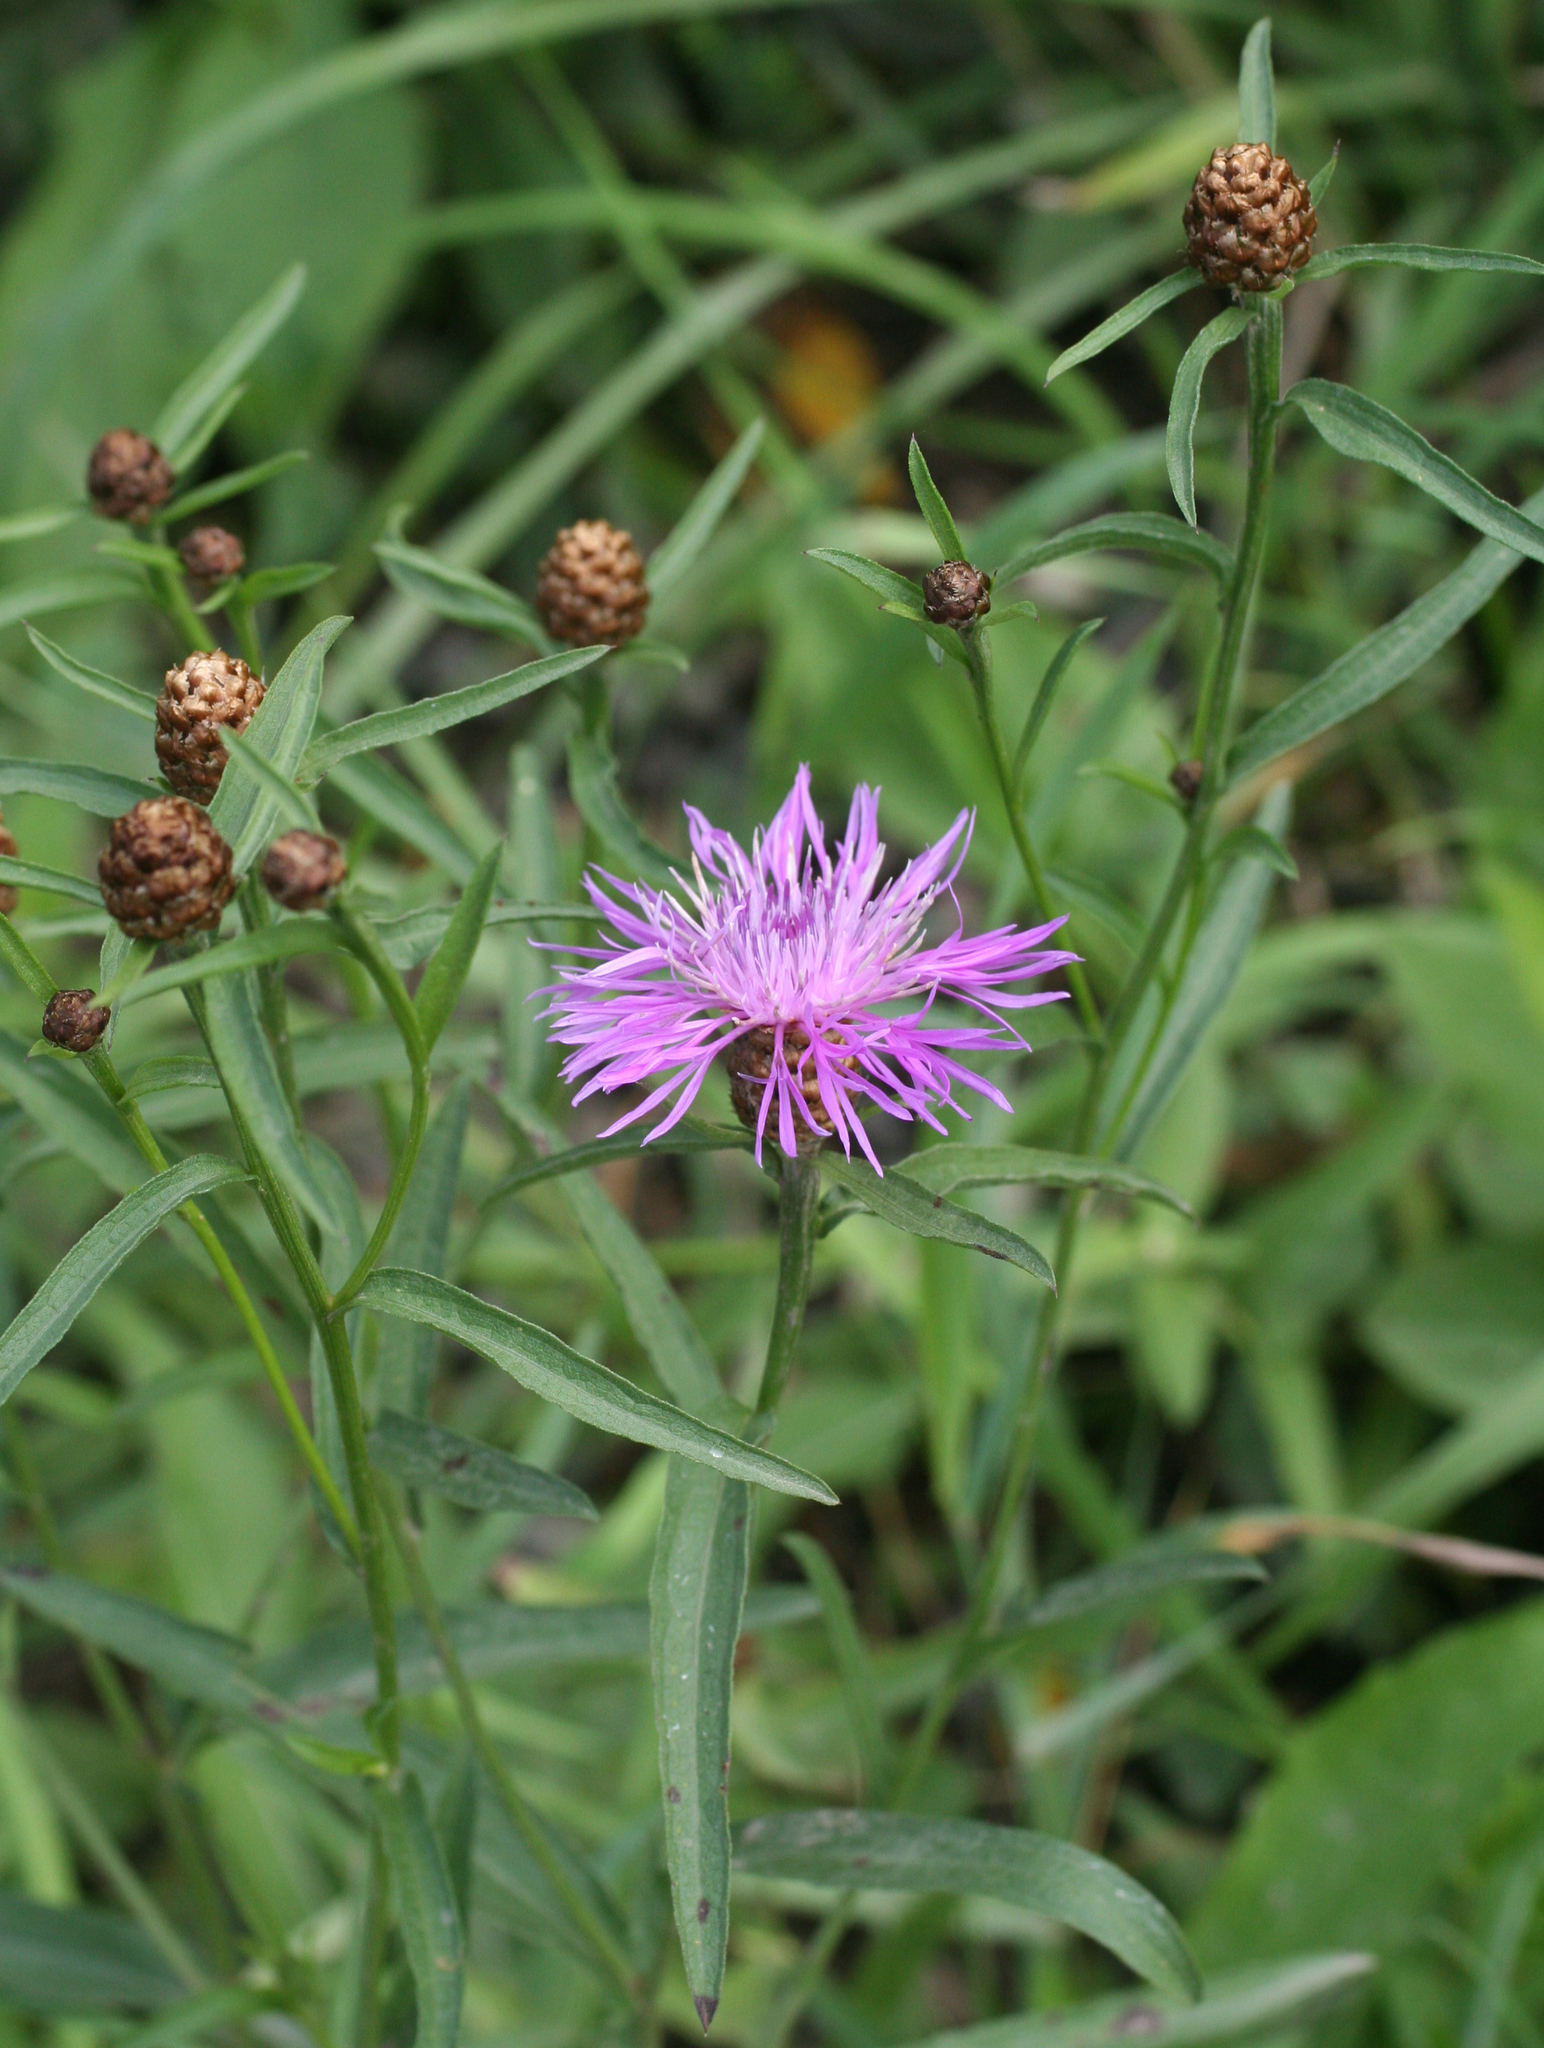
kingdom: Plantae
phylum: Tracheophyta
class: Magnoliopsida
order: Asterales
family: Asteraceae
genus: Centaurea
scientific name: Centaurea jacea
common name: Brown knapweed
